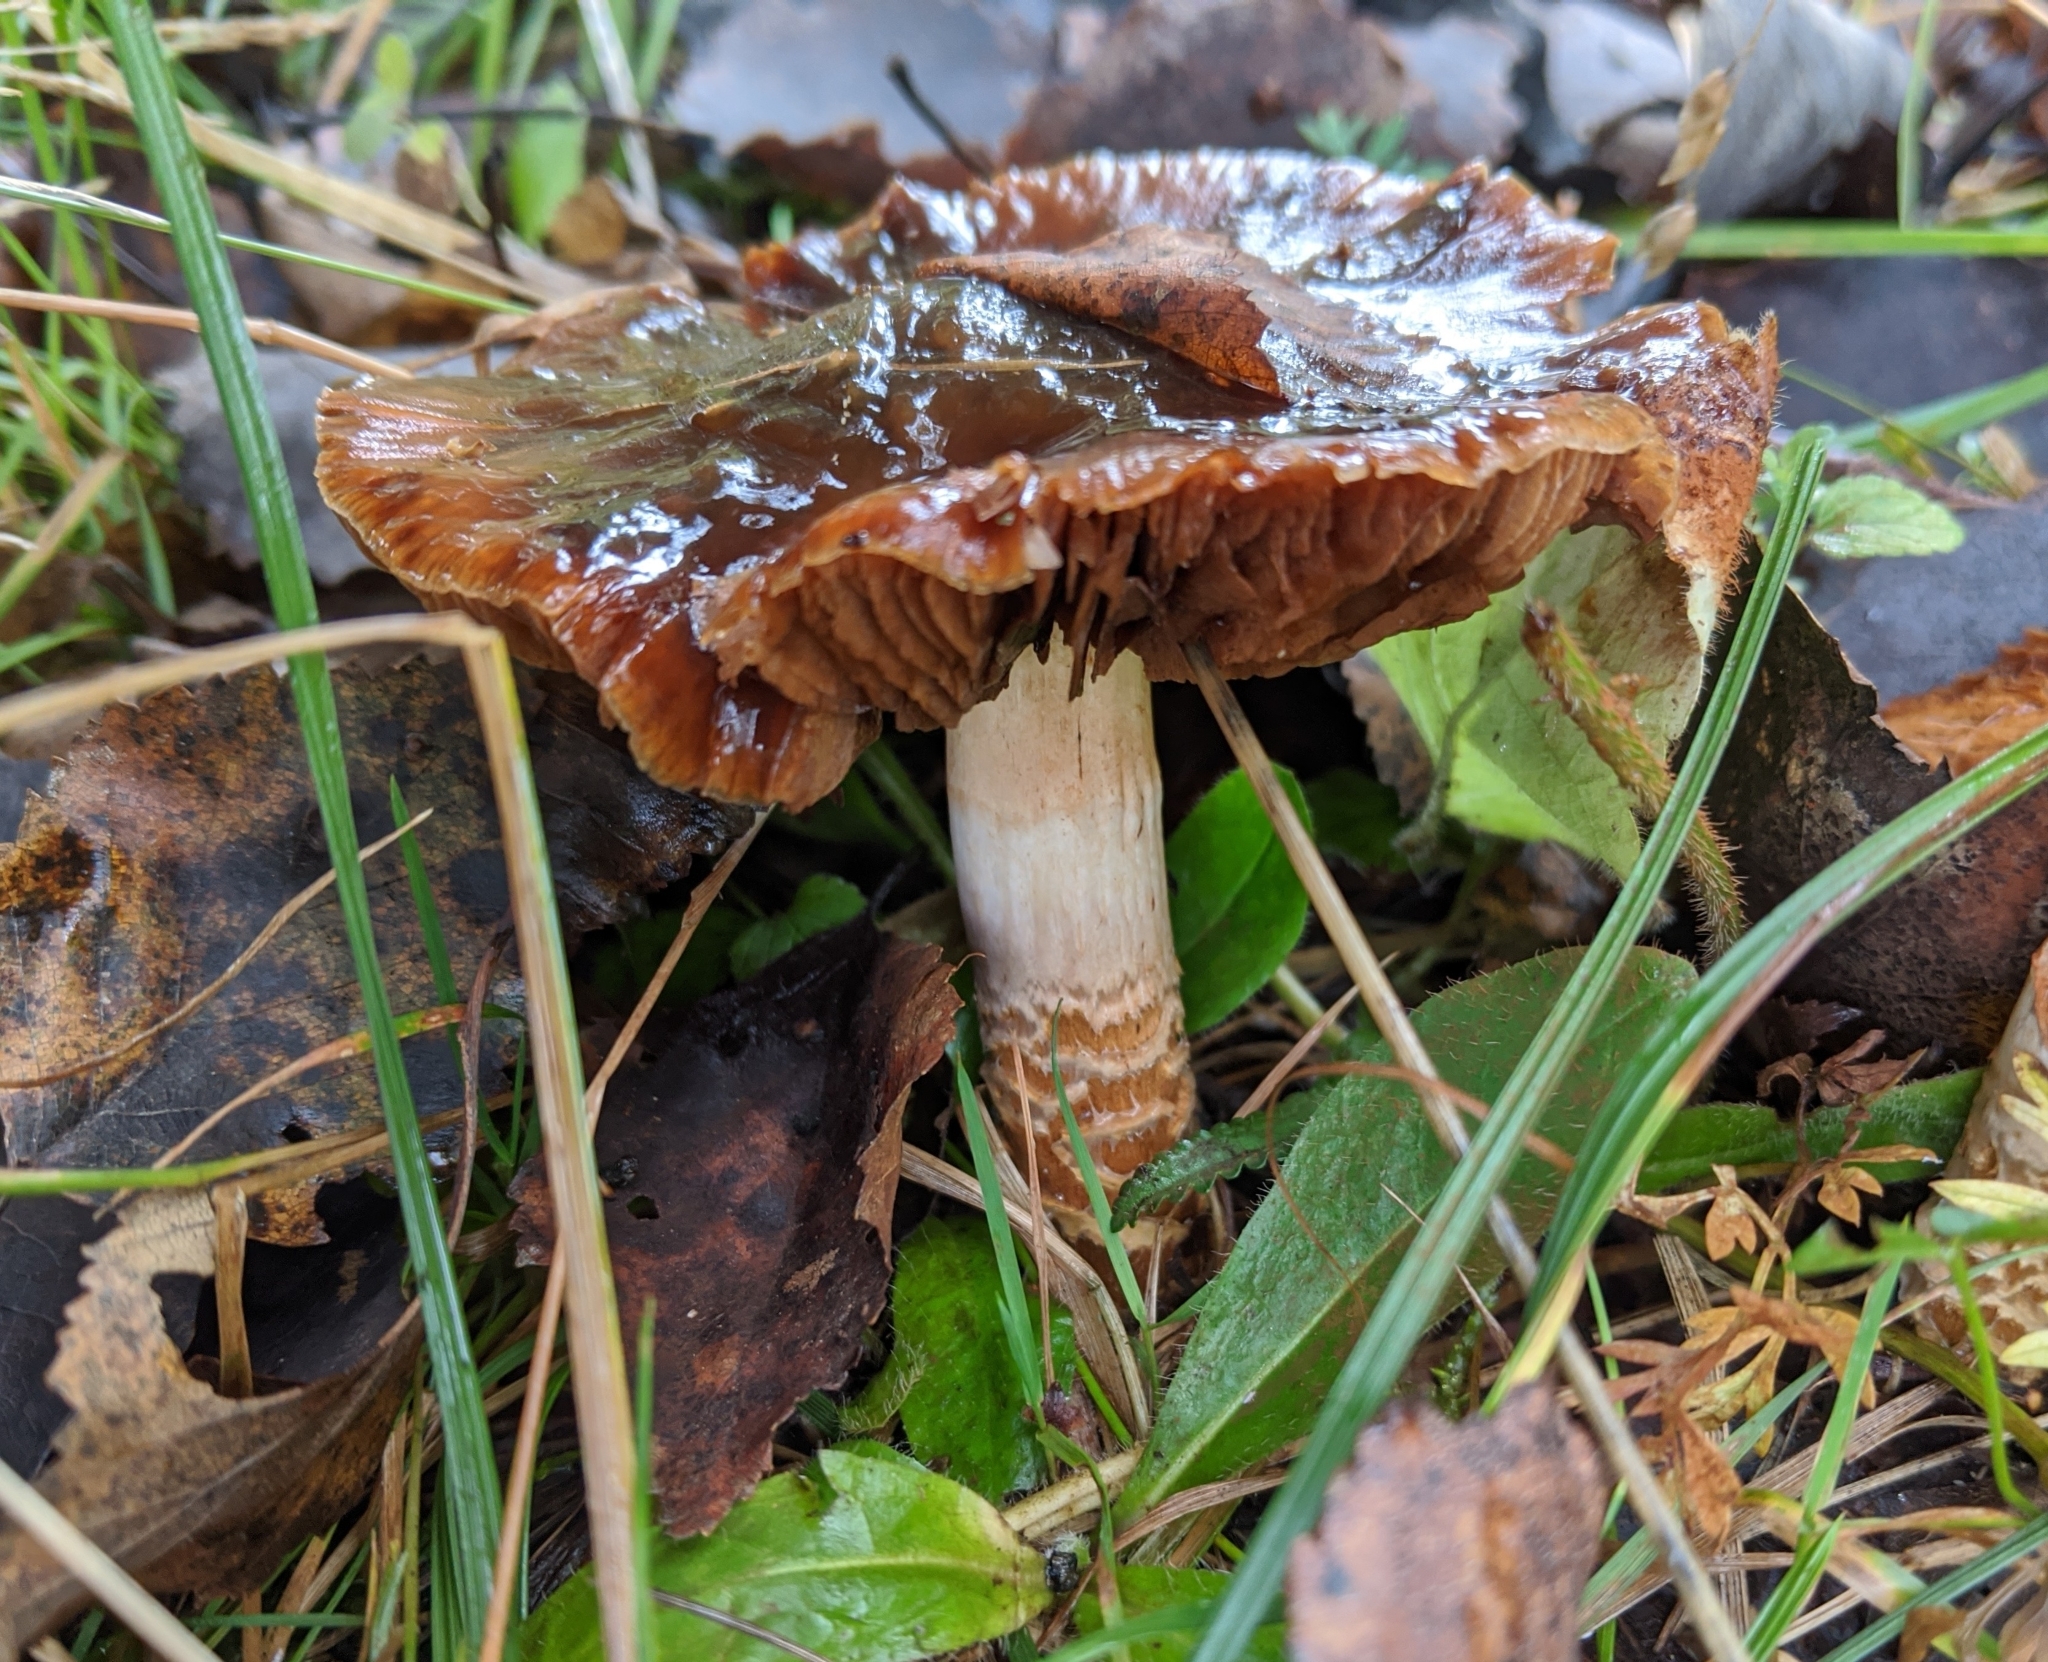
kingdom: Fungi
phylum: Basidiomycota
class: Agaricomycetes
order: Agaricales
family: Cortinariaceae
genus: Cortinarius
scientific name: Cortinarius trivialis
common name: Girdled webcap
